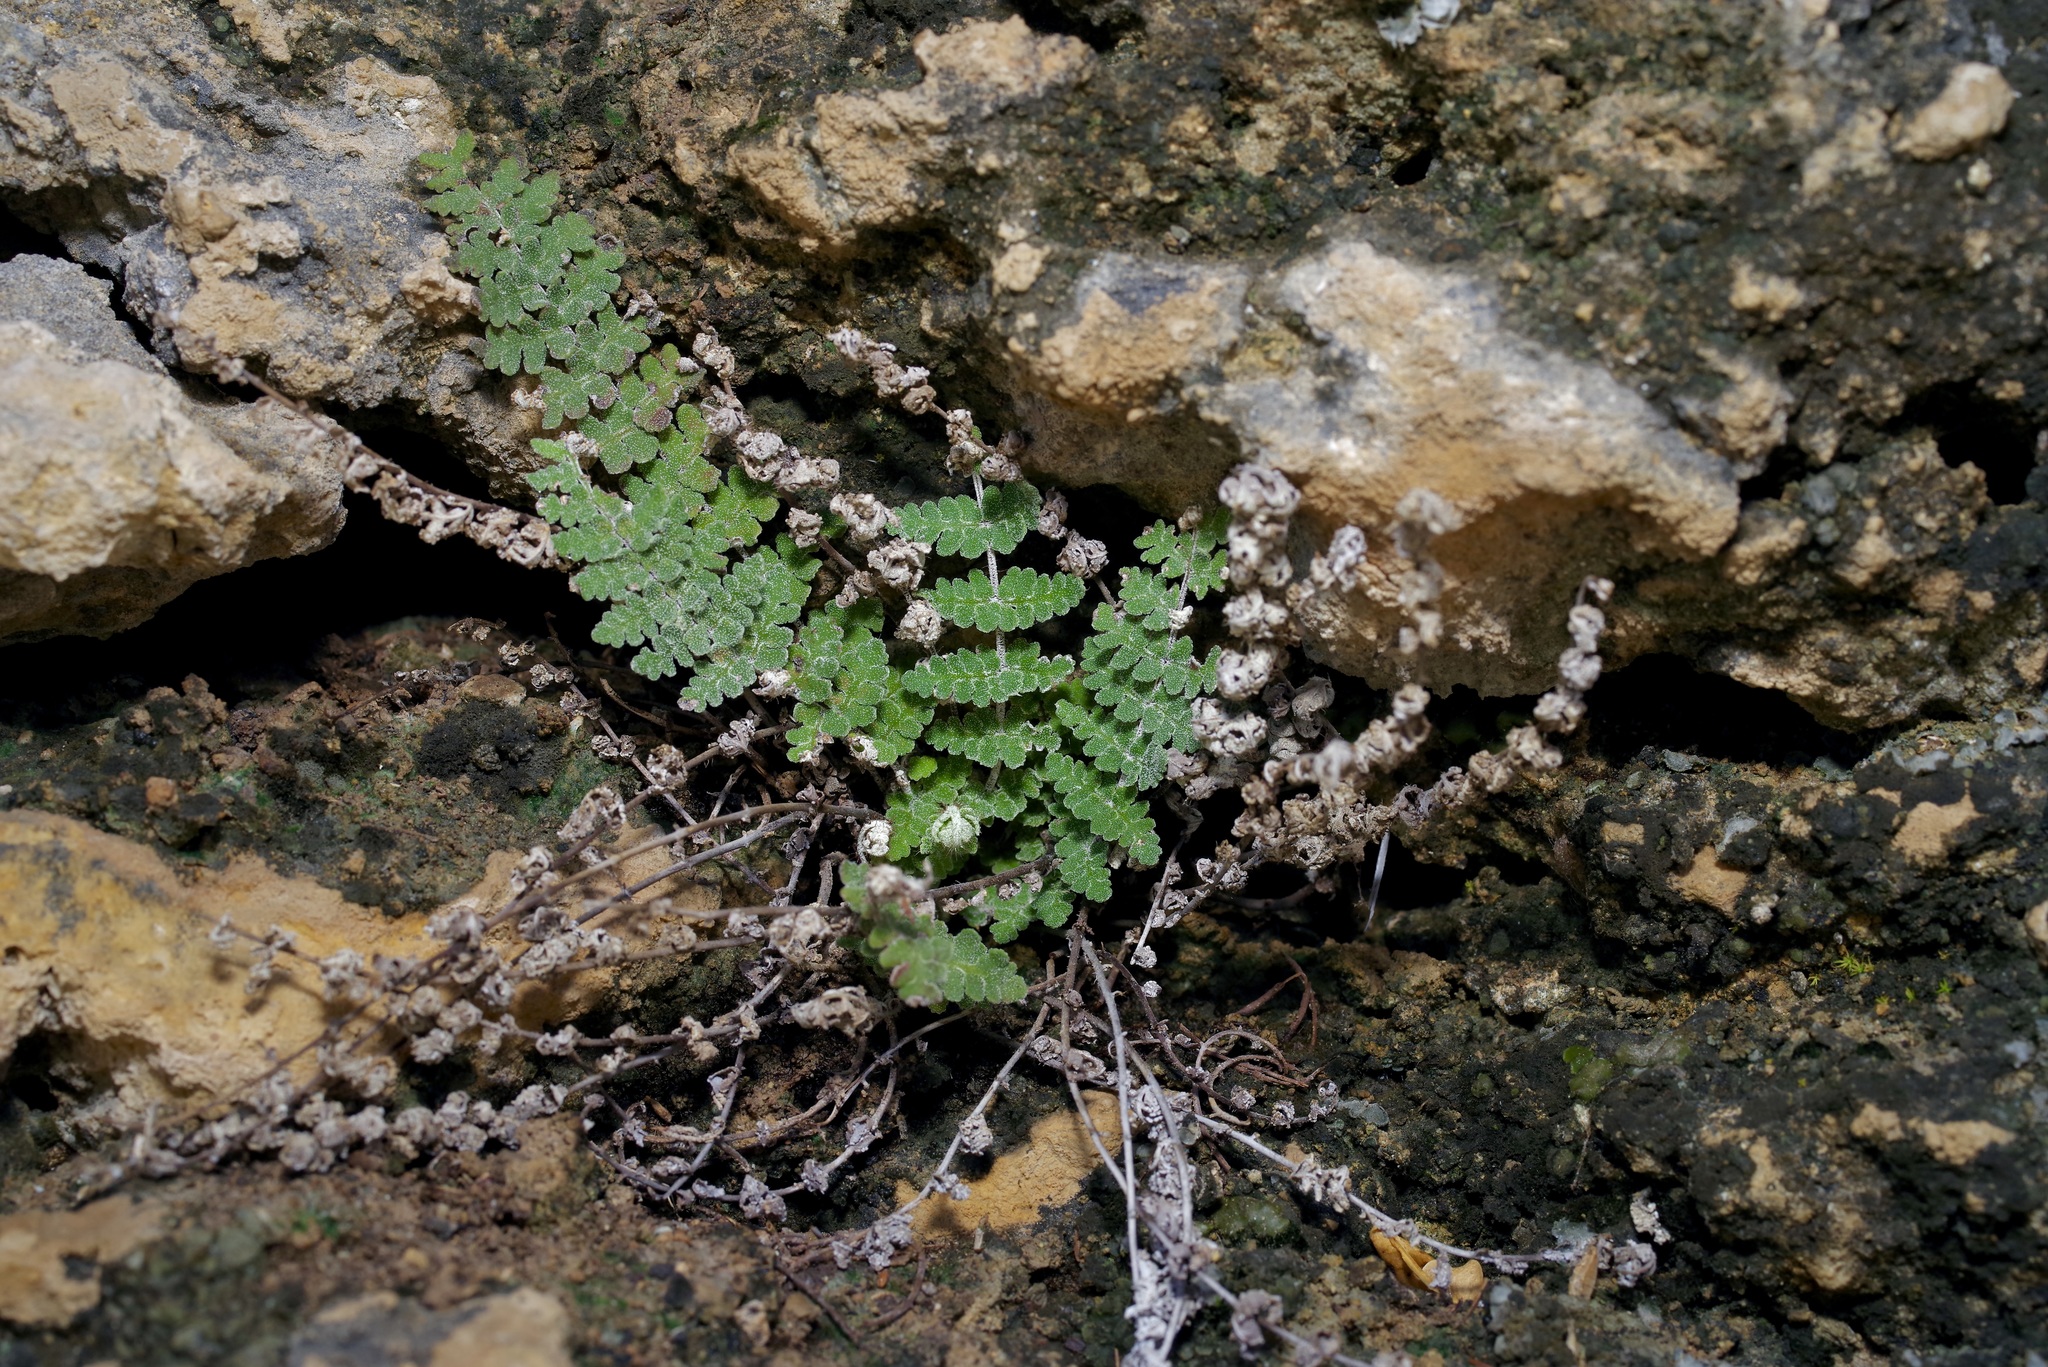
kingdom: Plantae
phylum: Tracheophyta
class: Polypodiopsida
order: Polypodiales
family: Pteridaceae
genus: Notholaena
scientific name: Notholaena schaffneri
